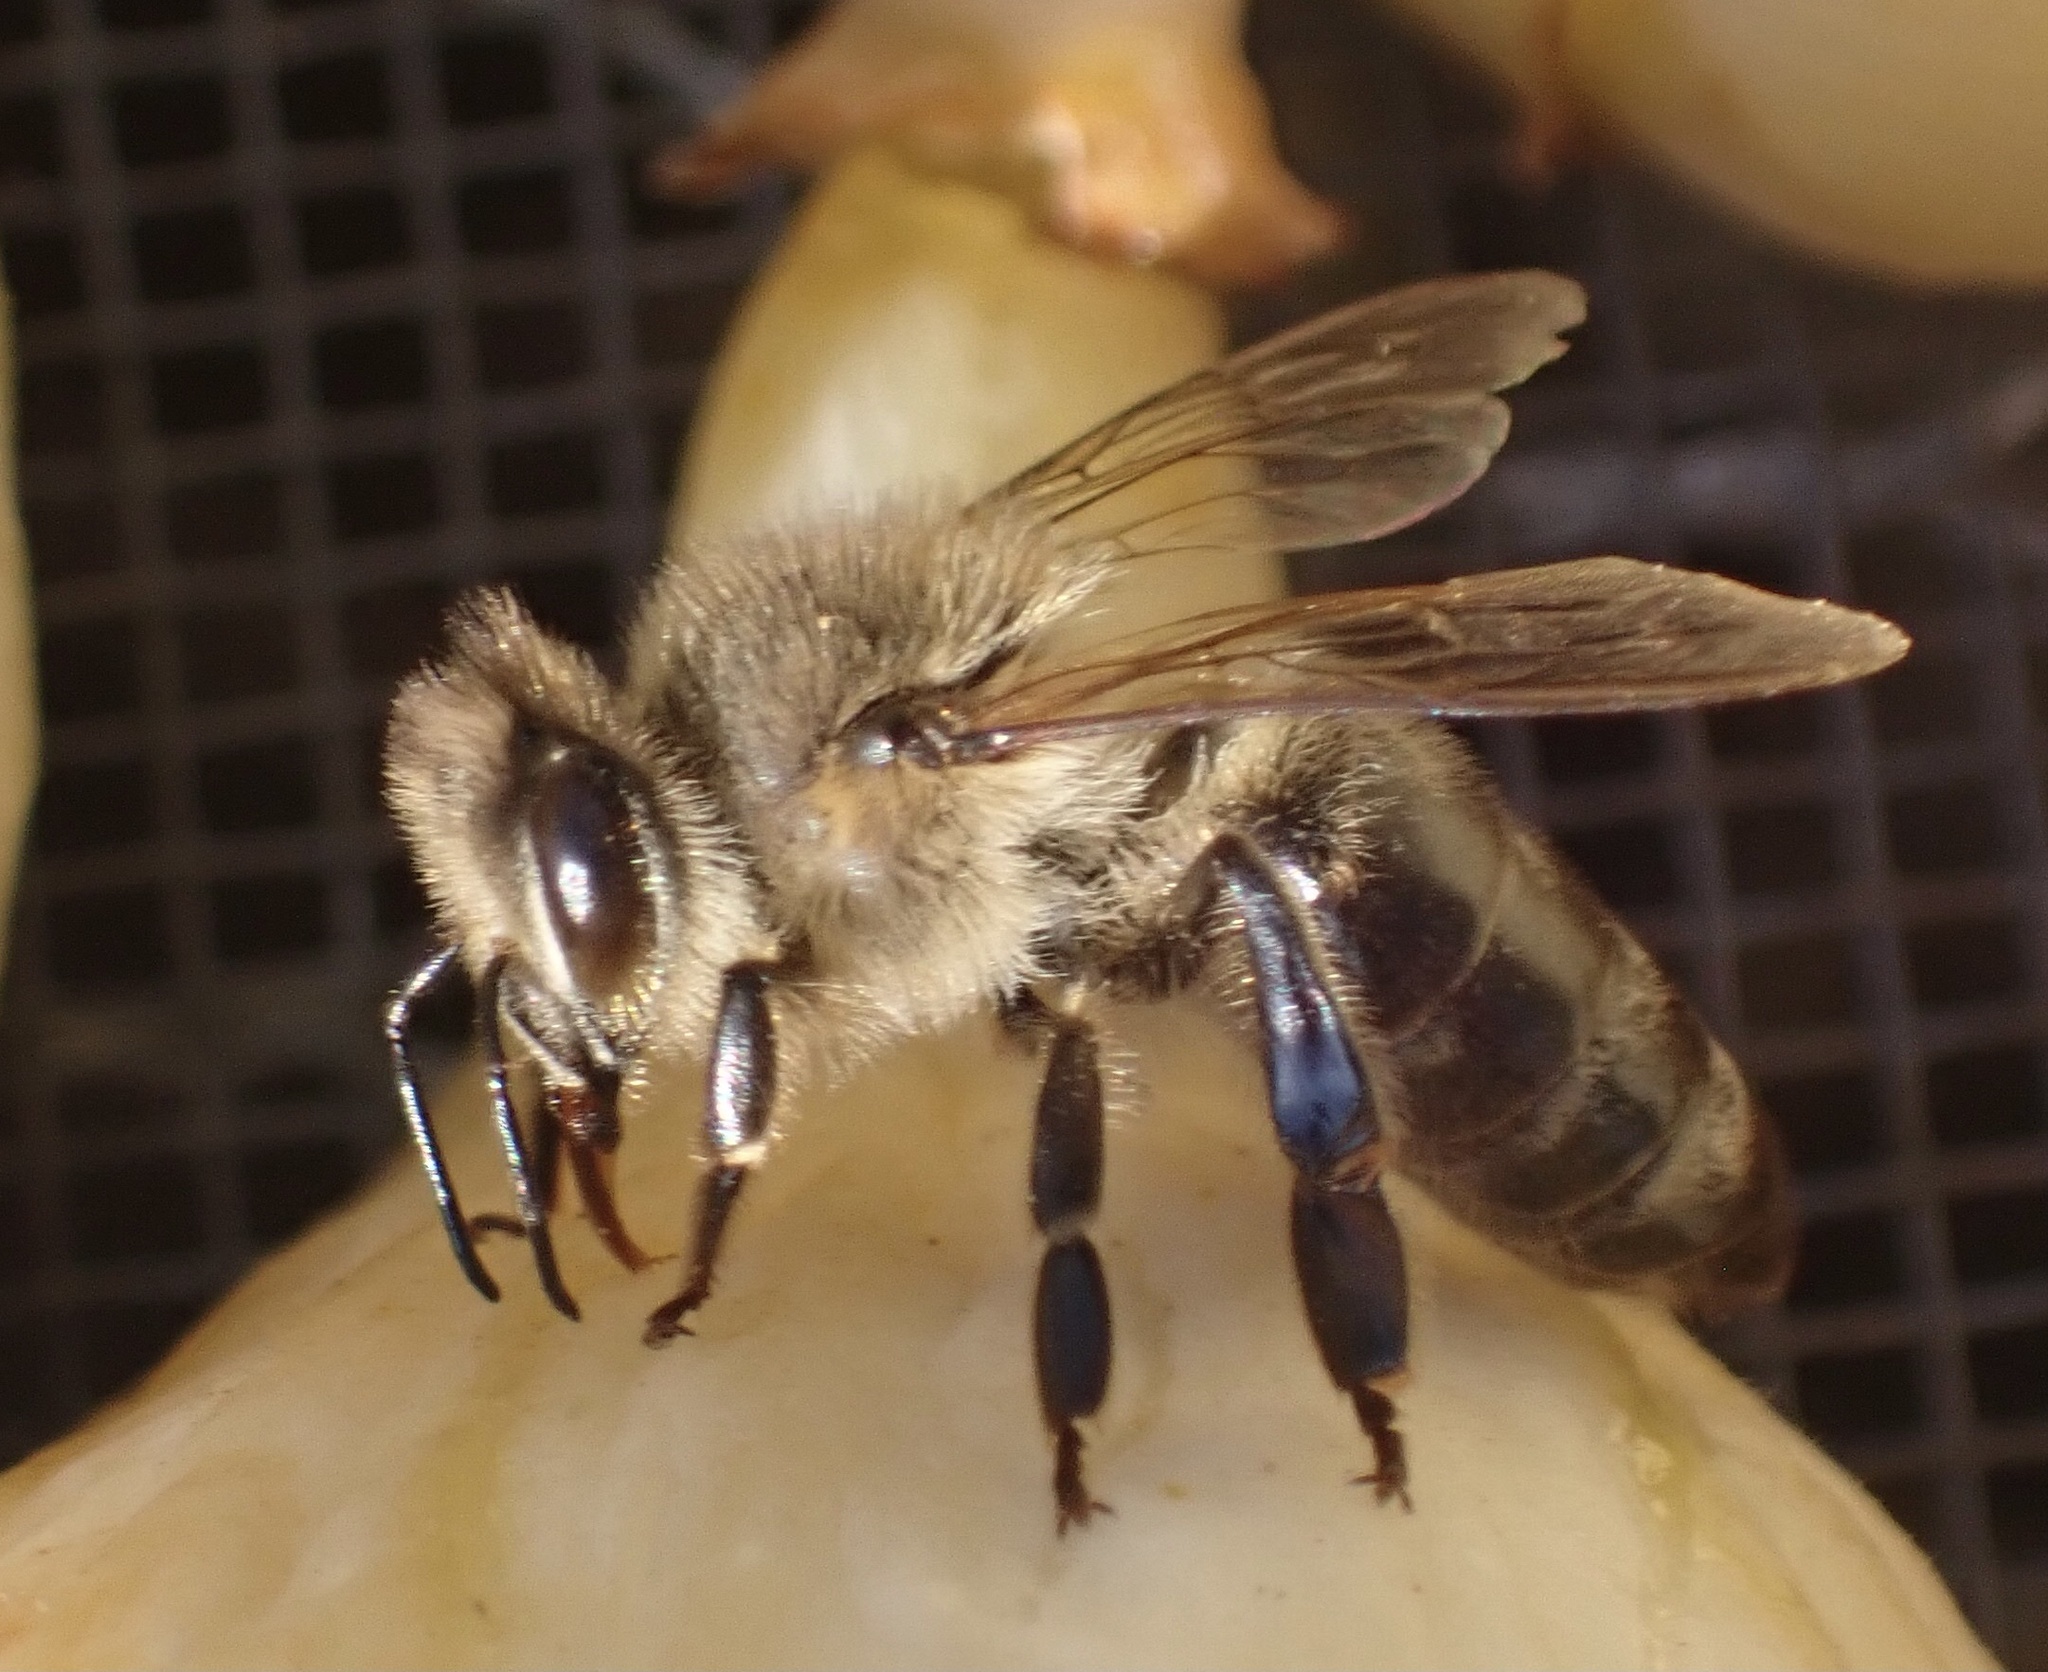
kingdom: Animalia
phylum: Arthropoda
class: Insecta
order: Hymenoptera
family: Apidae
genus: Apis
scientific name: Apis mellifera
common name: Honey bee
